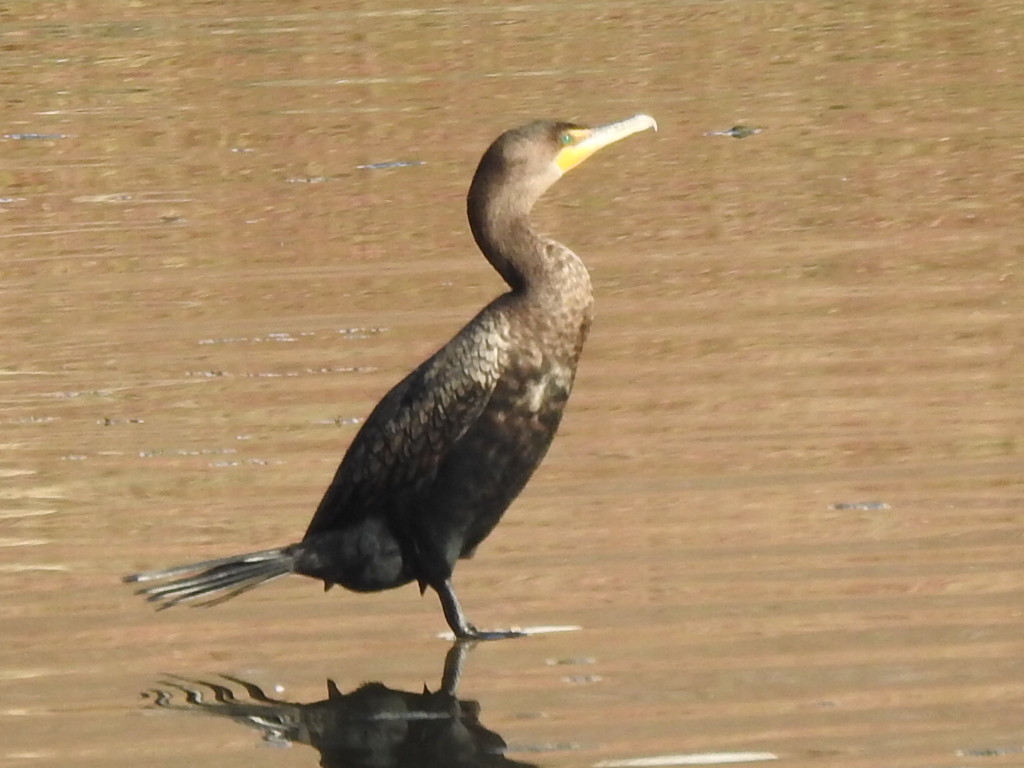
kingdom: Animalia
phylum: Chordata
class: Aves
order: Suliformes
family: Phalacrocoracidae
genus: Phalacrocorax
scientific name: Phalacrocorax auritus
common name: Double-crested cormorant
